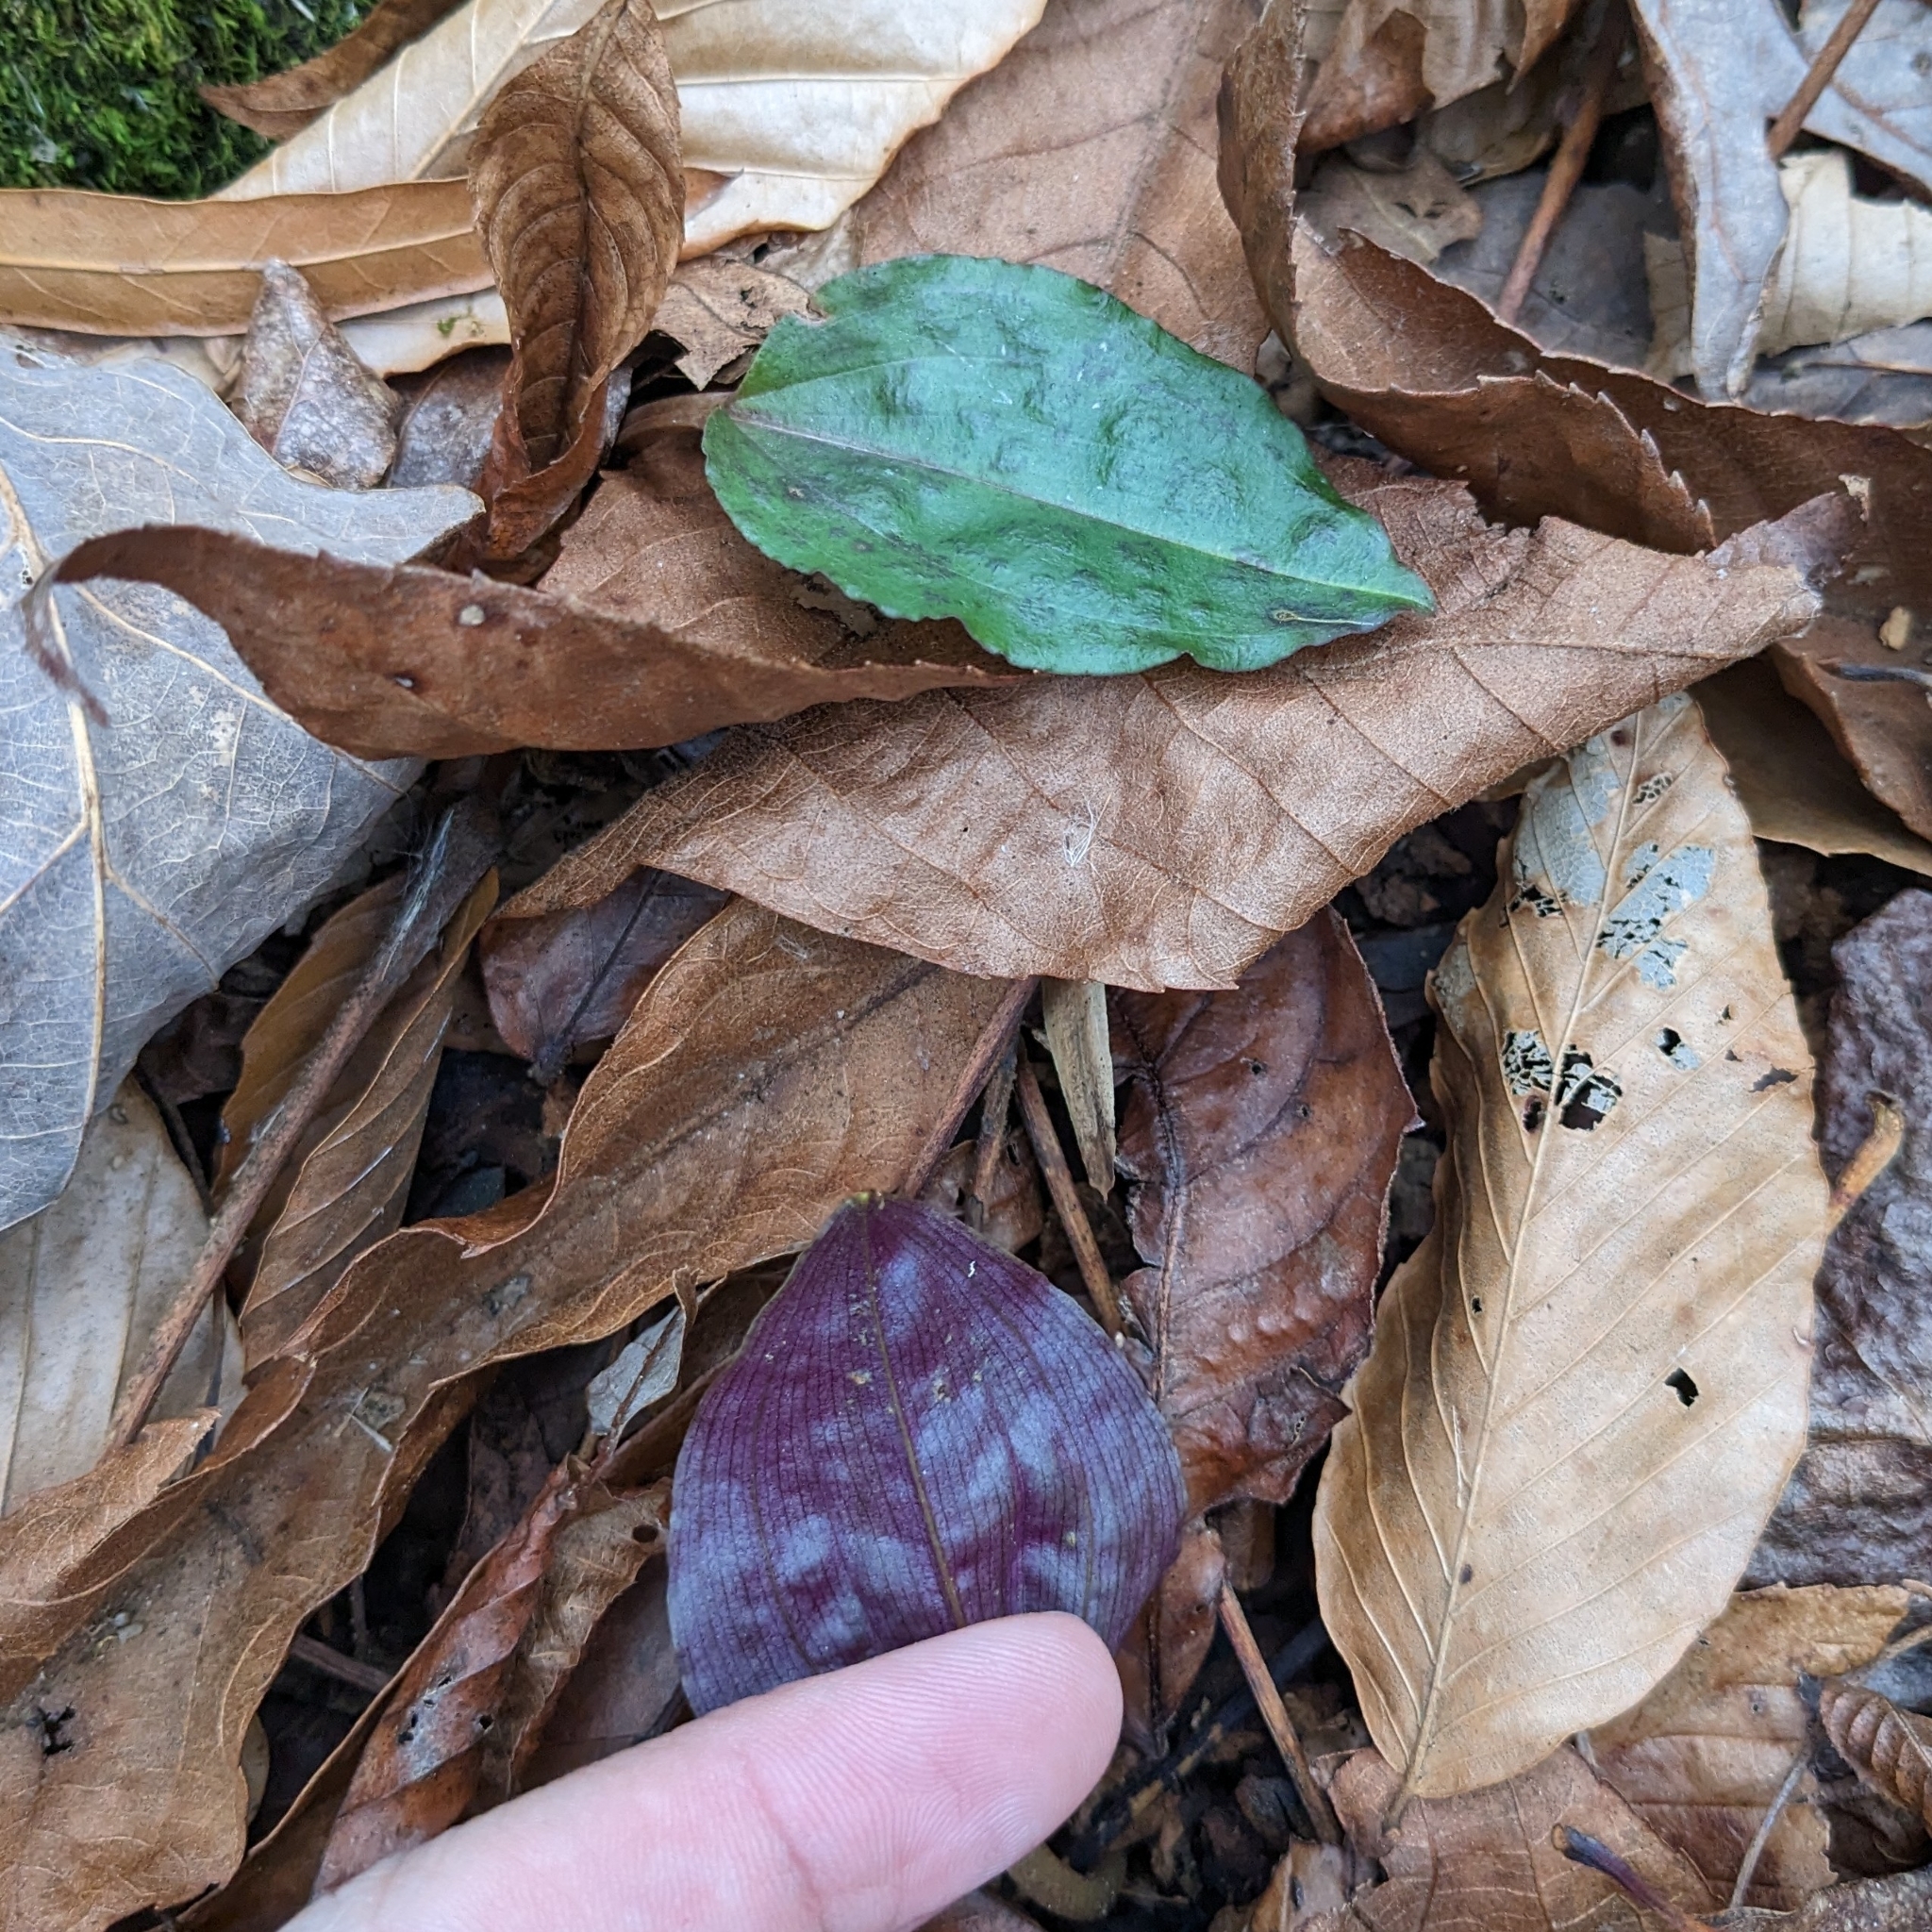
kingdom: Plantae
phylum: Tracheophyta
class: Liliopsida
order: Asparagales
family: Orchidaceae
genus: Tipularia
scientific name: Tipularia discolor
